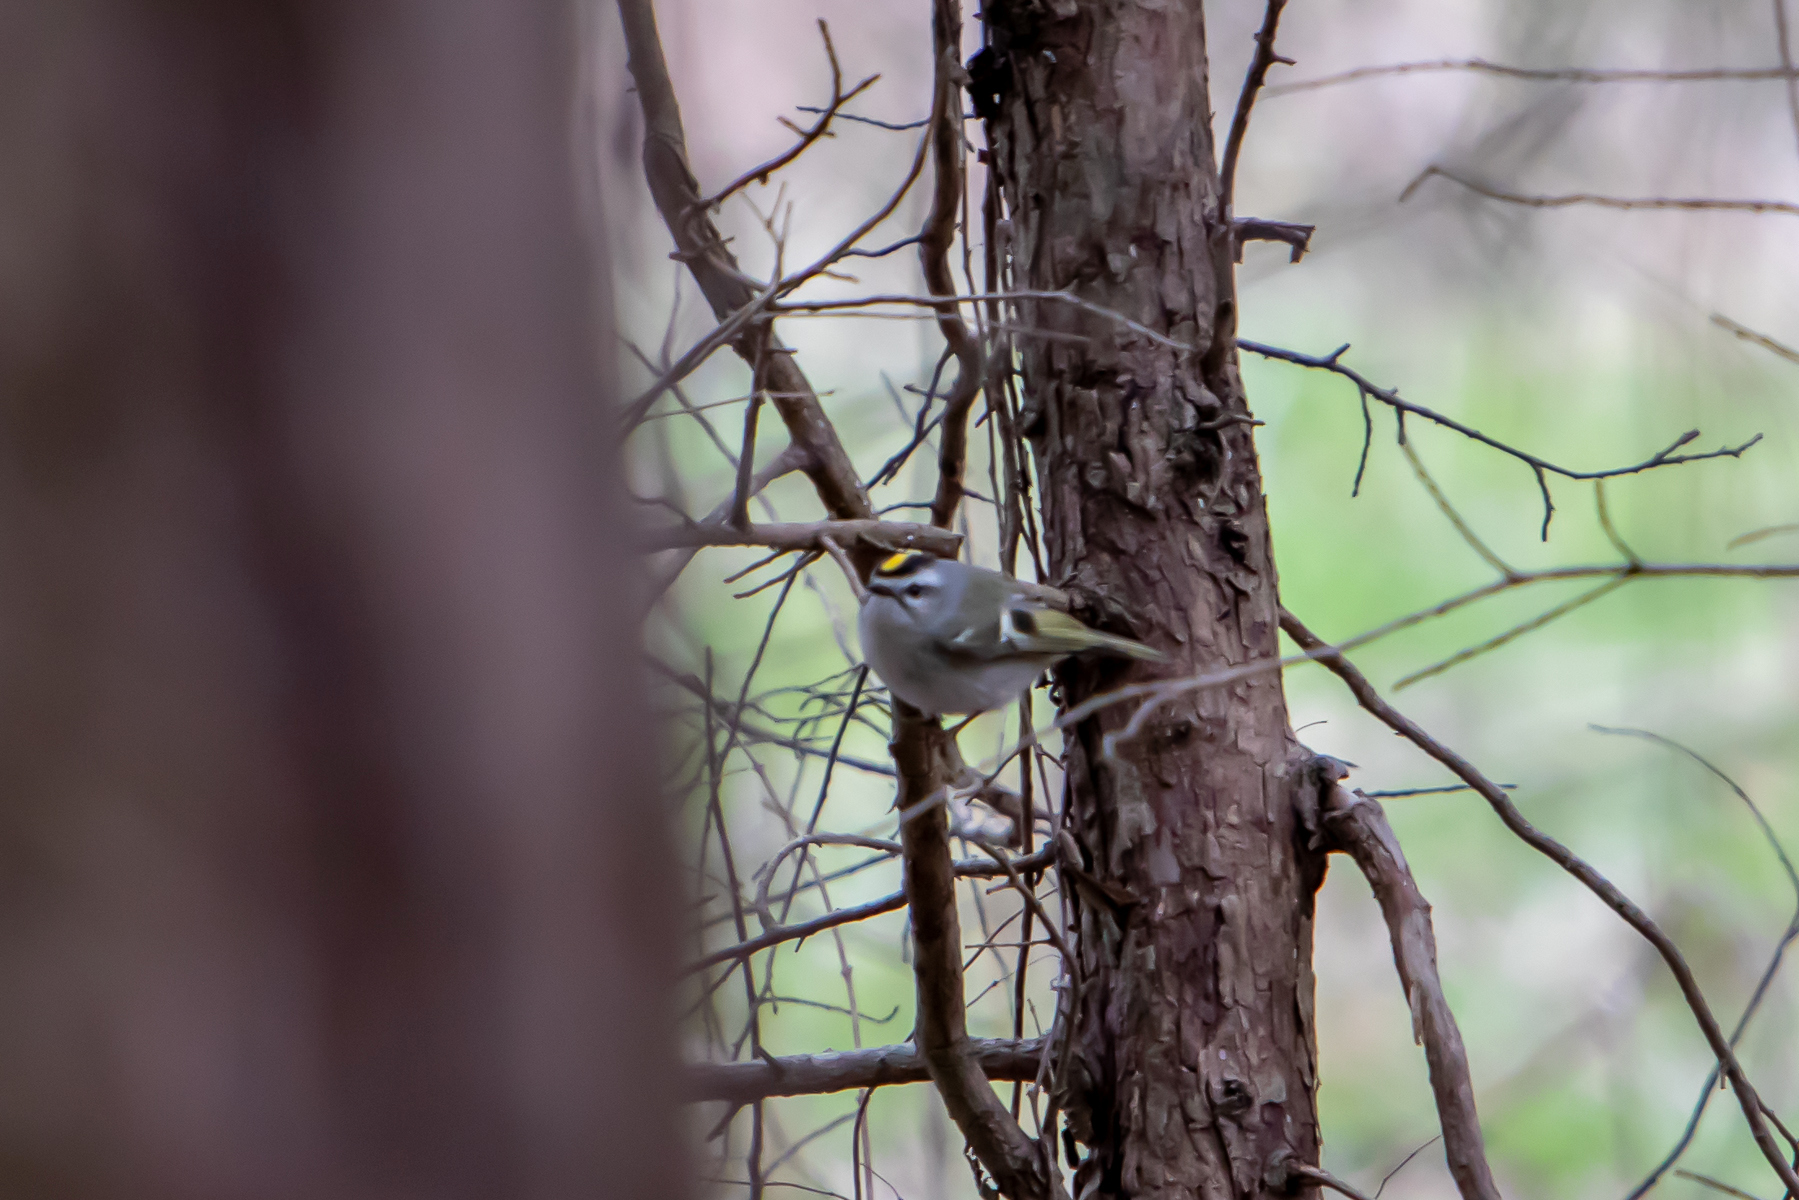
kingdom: Animalia
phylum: Chordata
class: Aves
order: Passeriformes
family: Regulidae
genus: Regulus
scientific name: Regulus satrapa
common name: Golden-crowned kinglet
